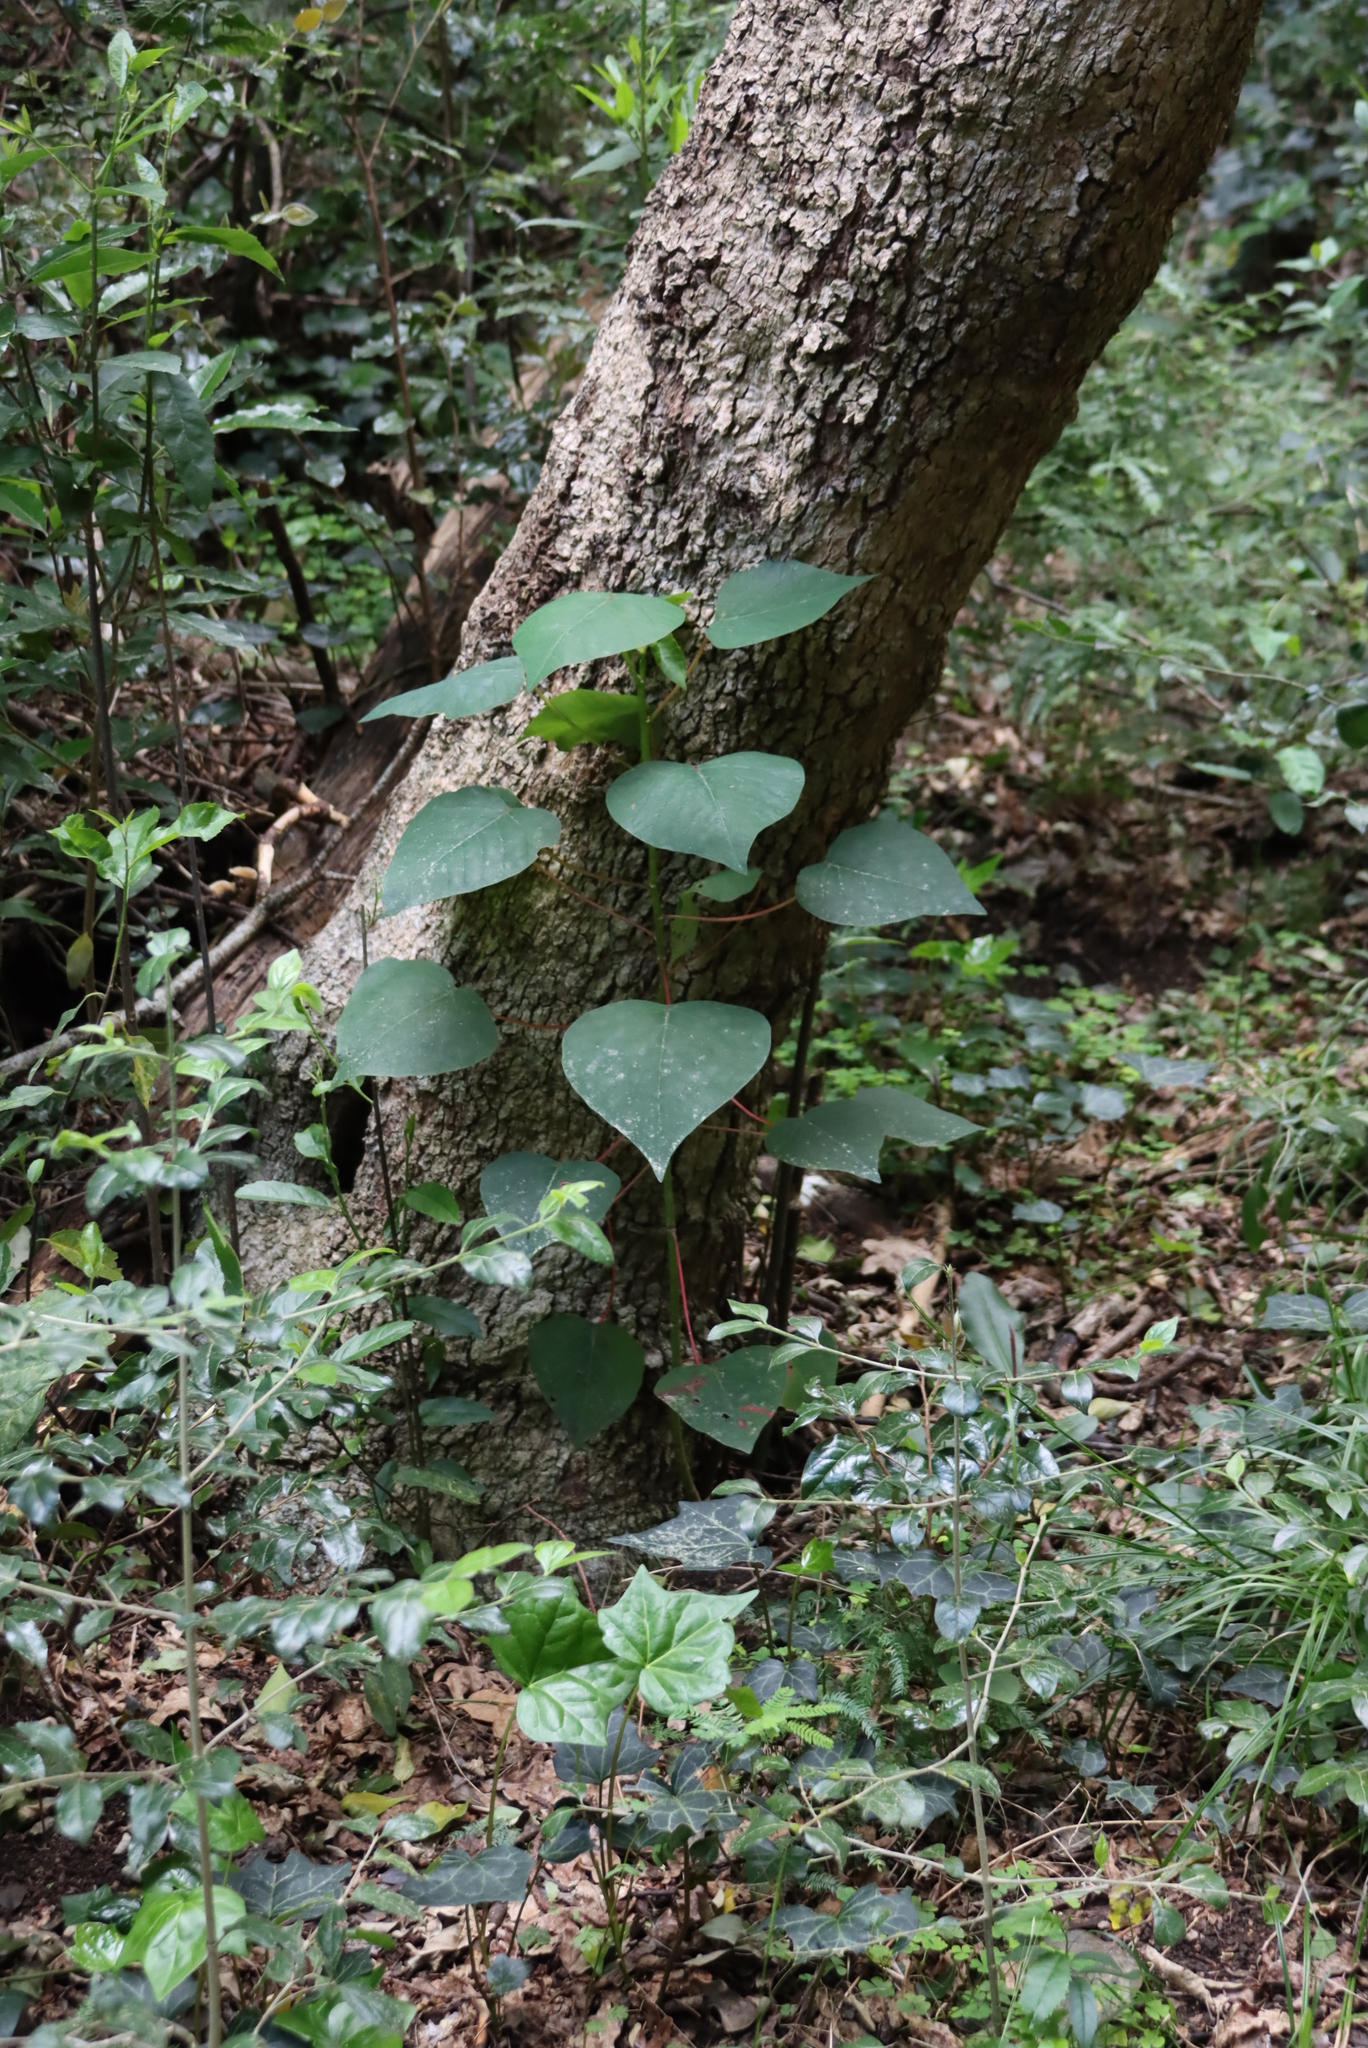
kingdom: Plantae
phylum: Tracheophyta
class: Magnoliopsida
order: Malpighiales
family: Euphorbiaceae
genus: Homalanthus
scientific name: Homalanthus populifolius
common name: Queensland poplar
